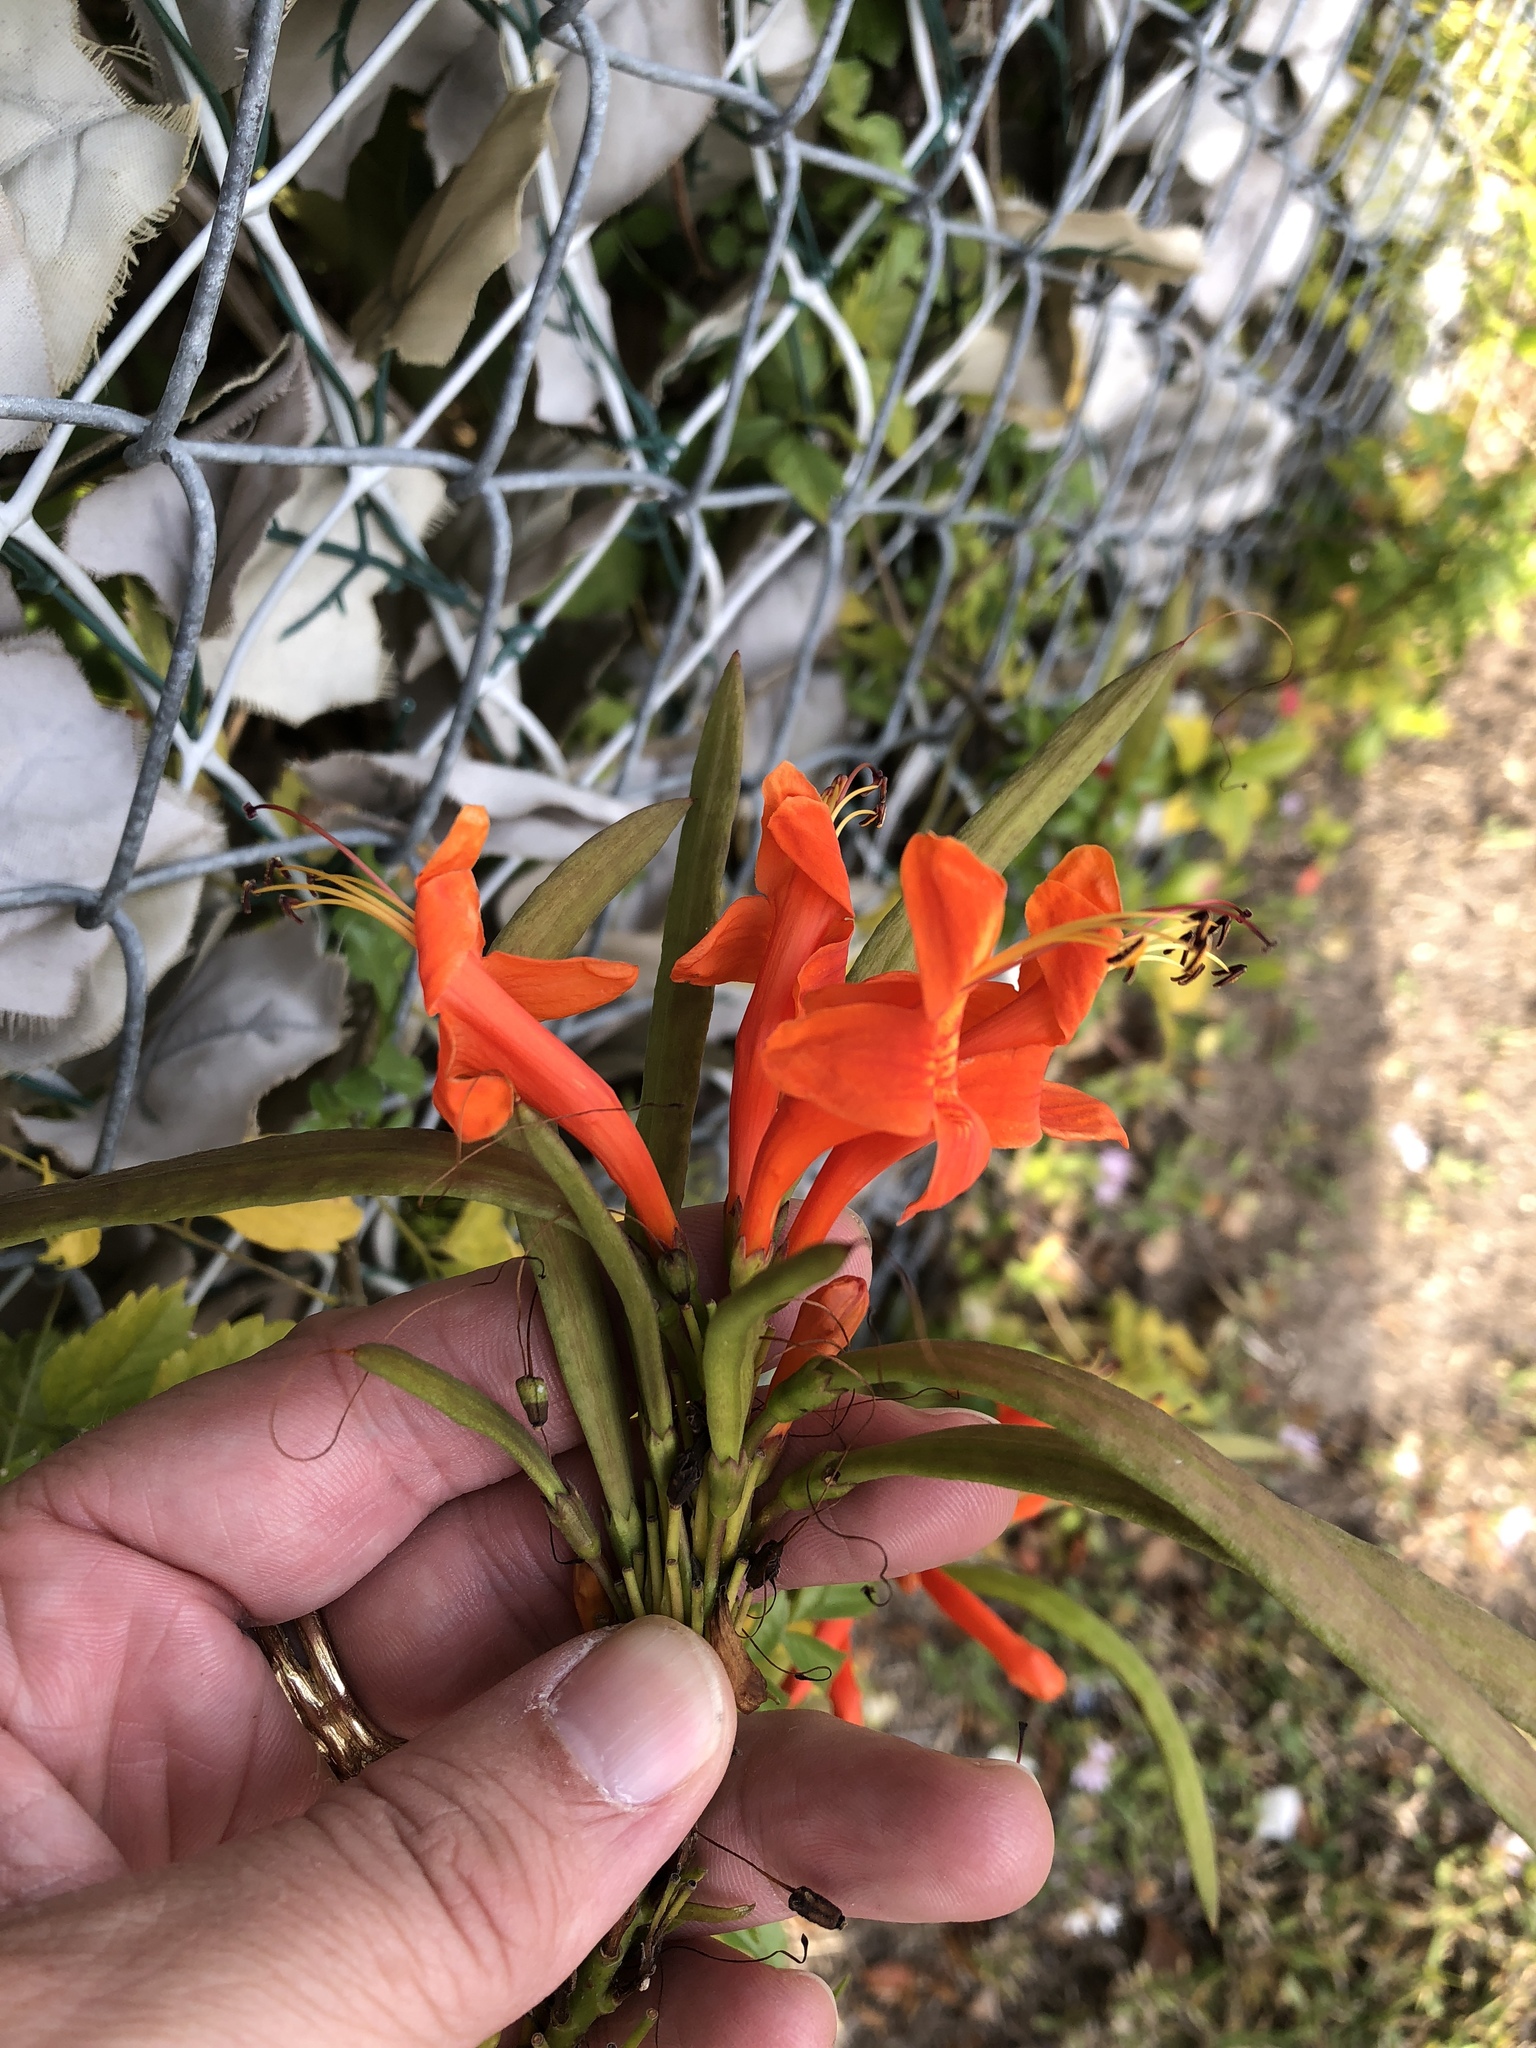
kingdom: Plantae
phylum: Tracheophyta
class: Magnoliopsida
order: Lamiales
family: Bignoniaceae
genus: Tecomaria
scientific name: Tecomaria capensis
